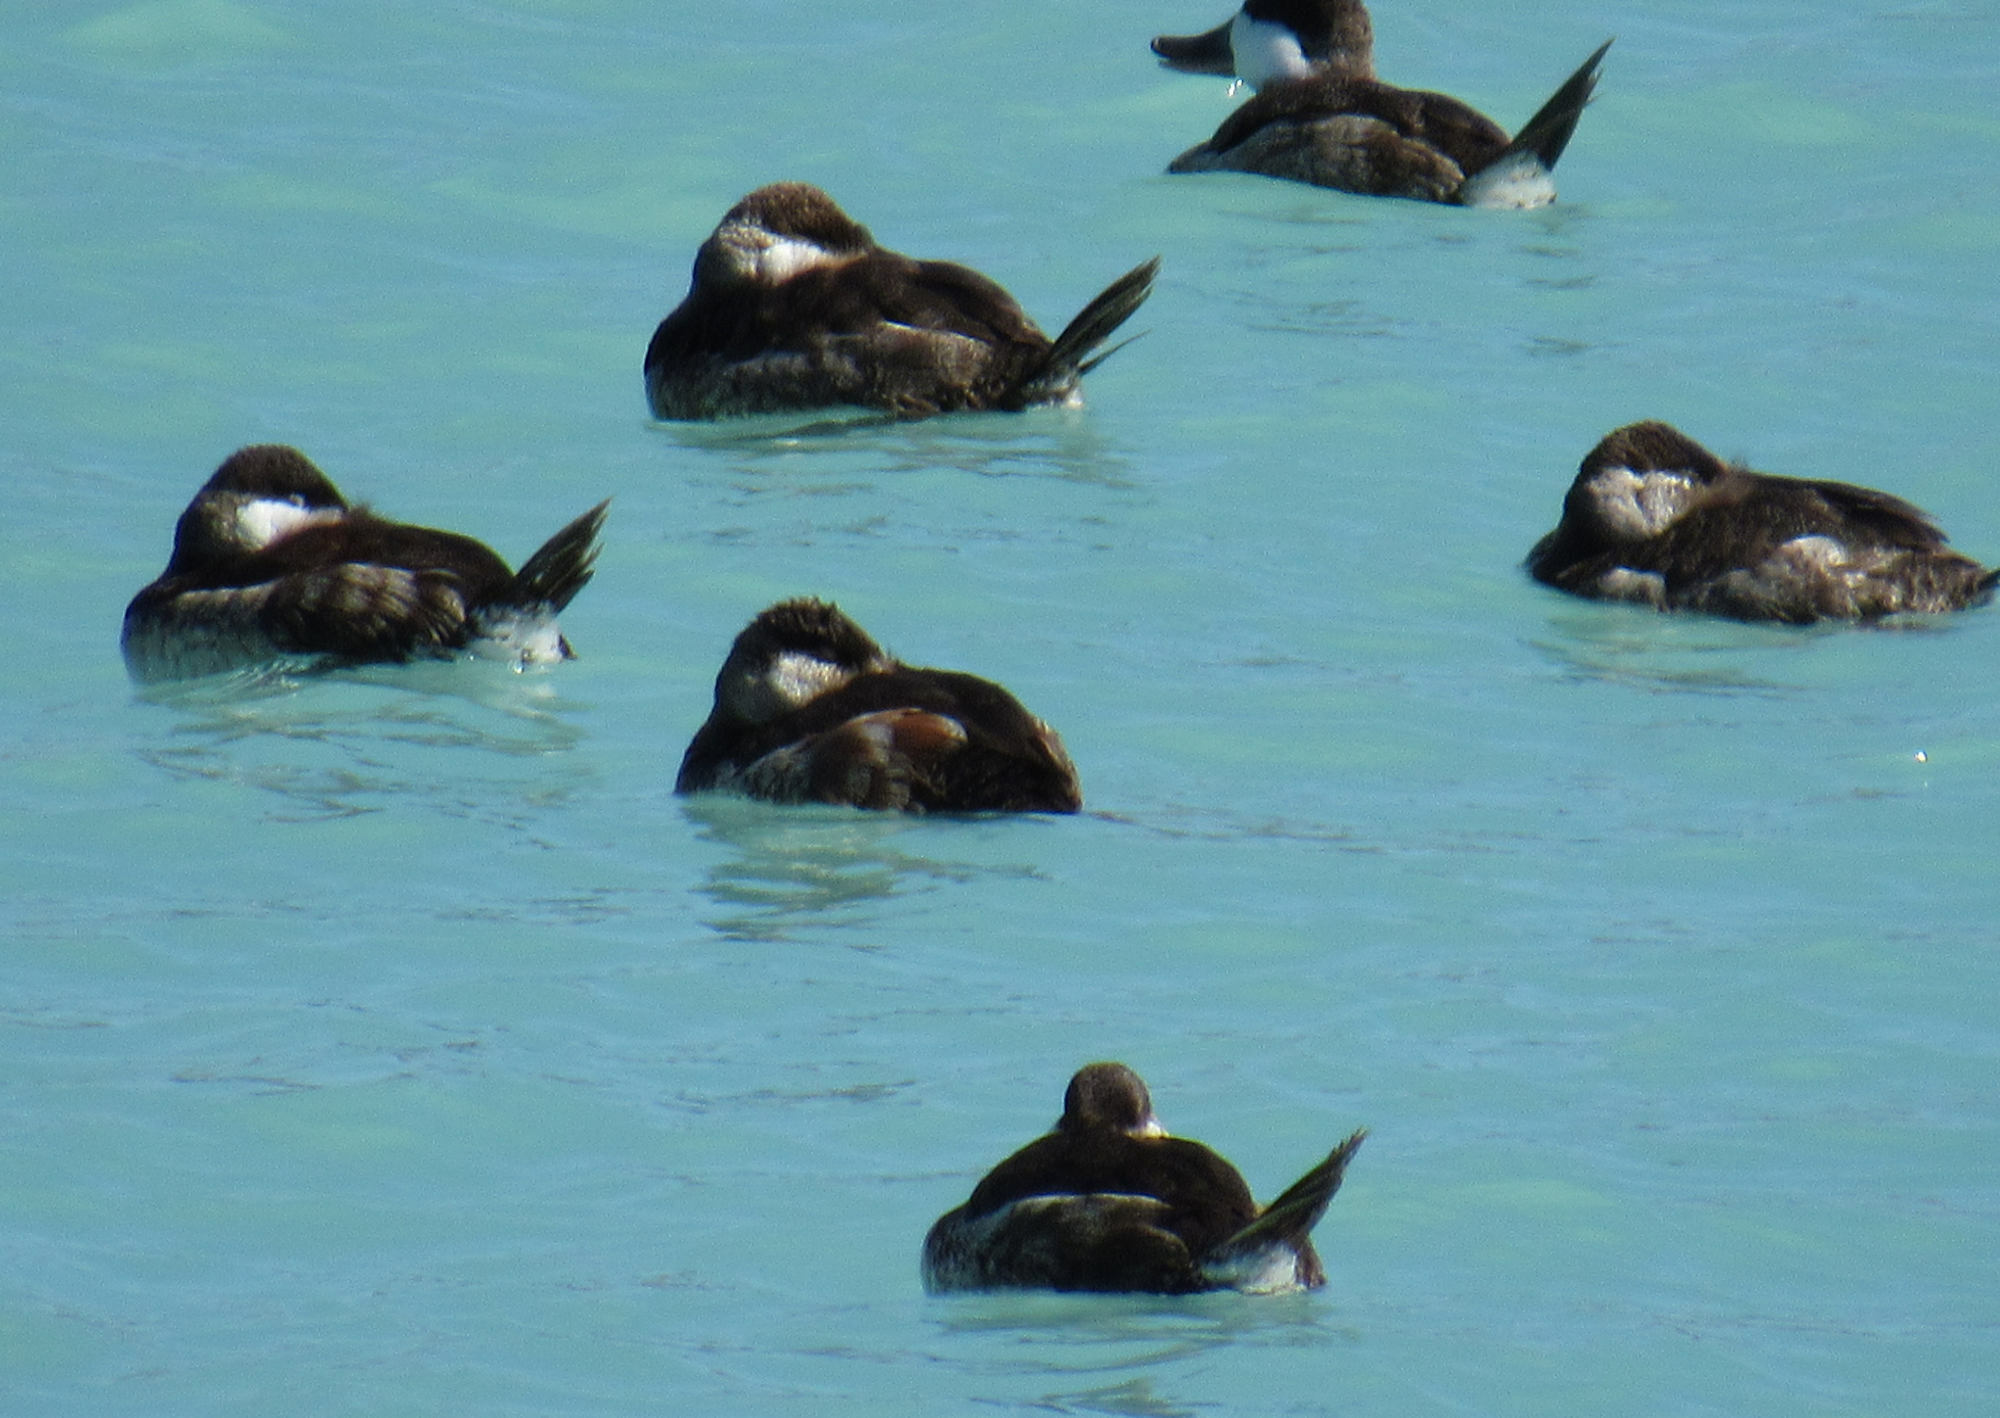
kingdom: Animalia
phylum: Chordata
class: Aves
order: Anseriformes
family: Anatidae
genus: Oxyura
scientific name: Oxyura jamaicensis
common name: Ruddy duck
